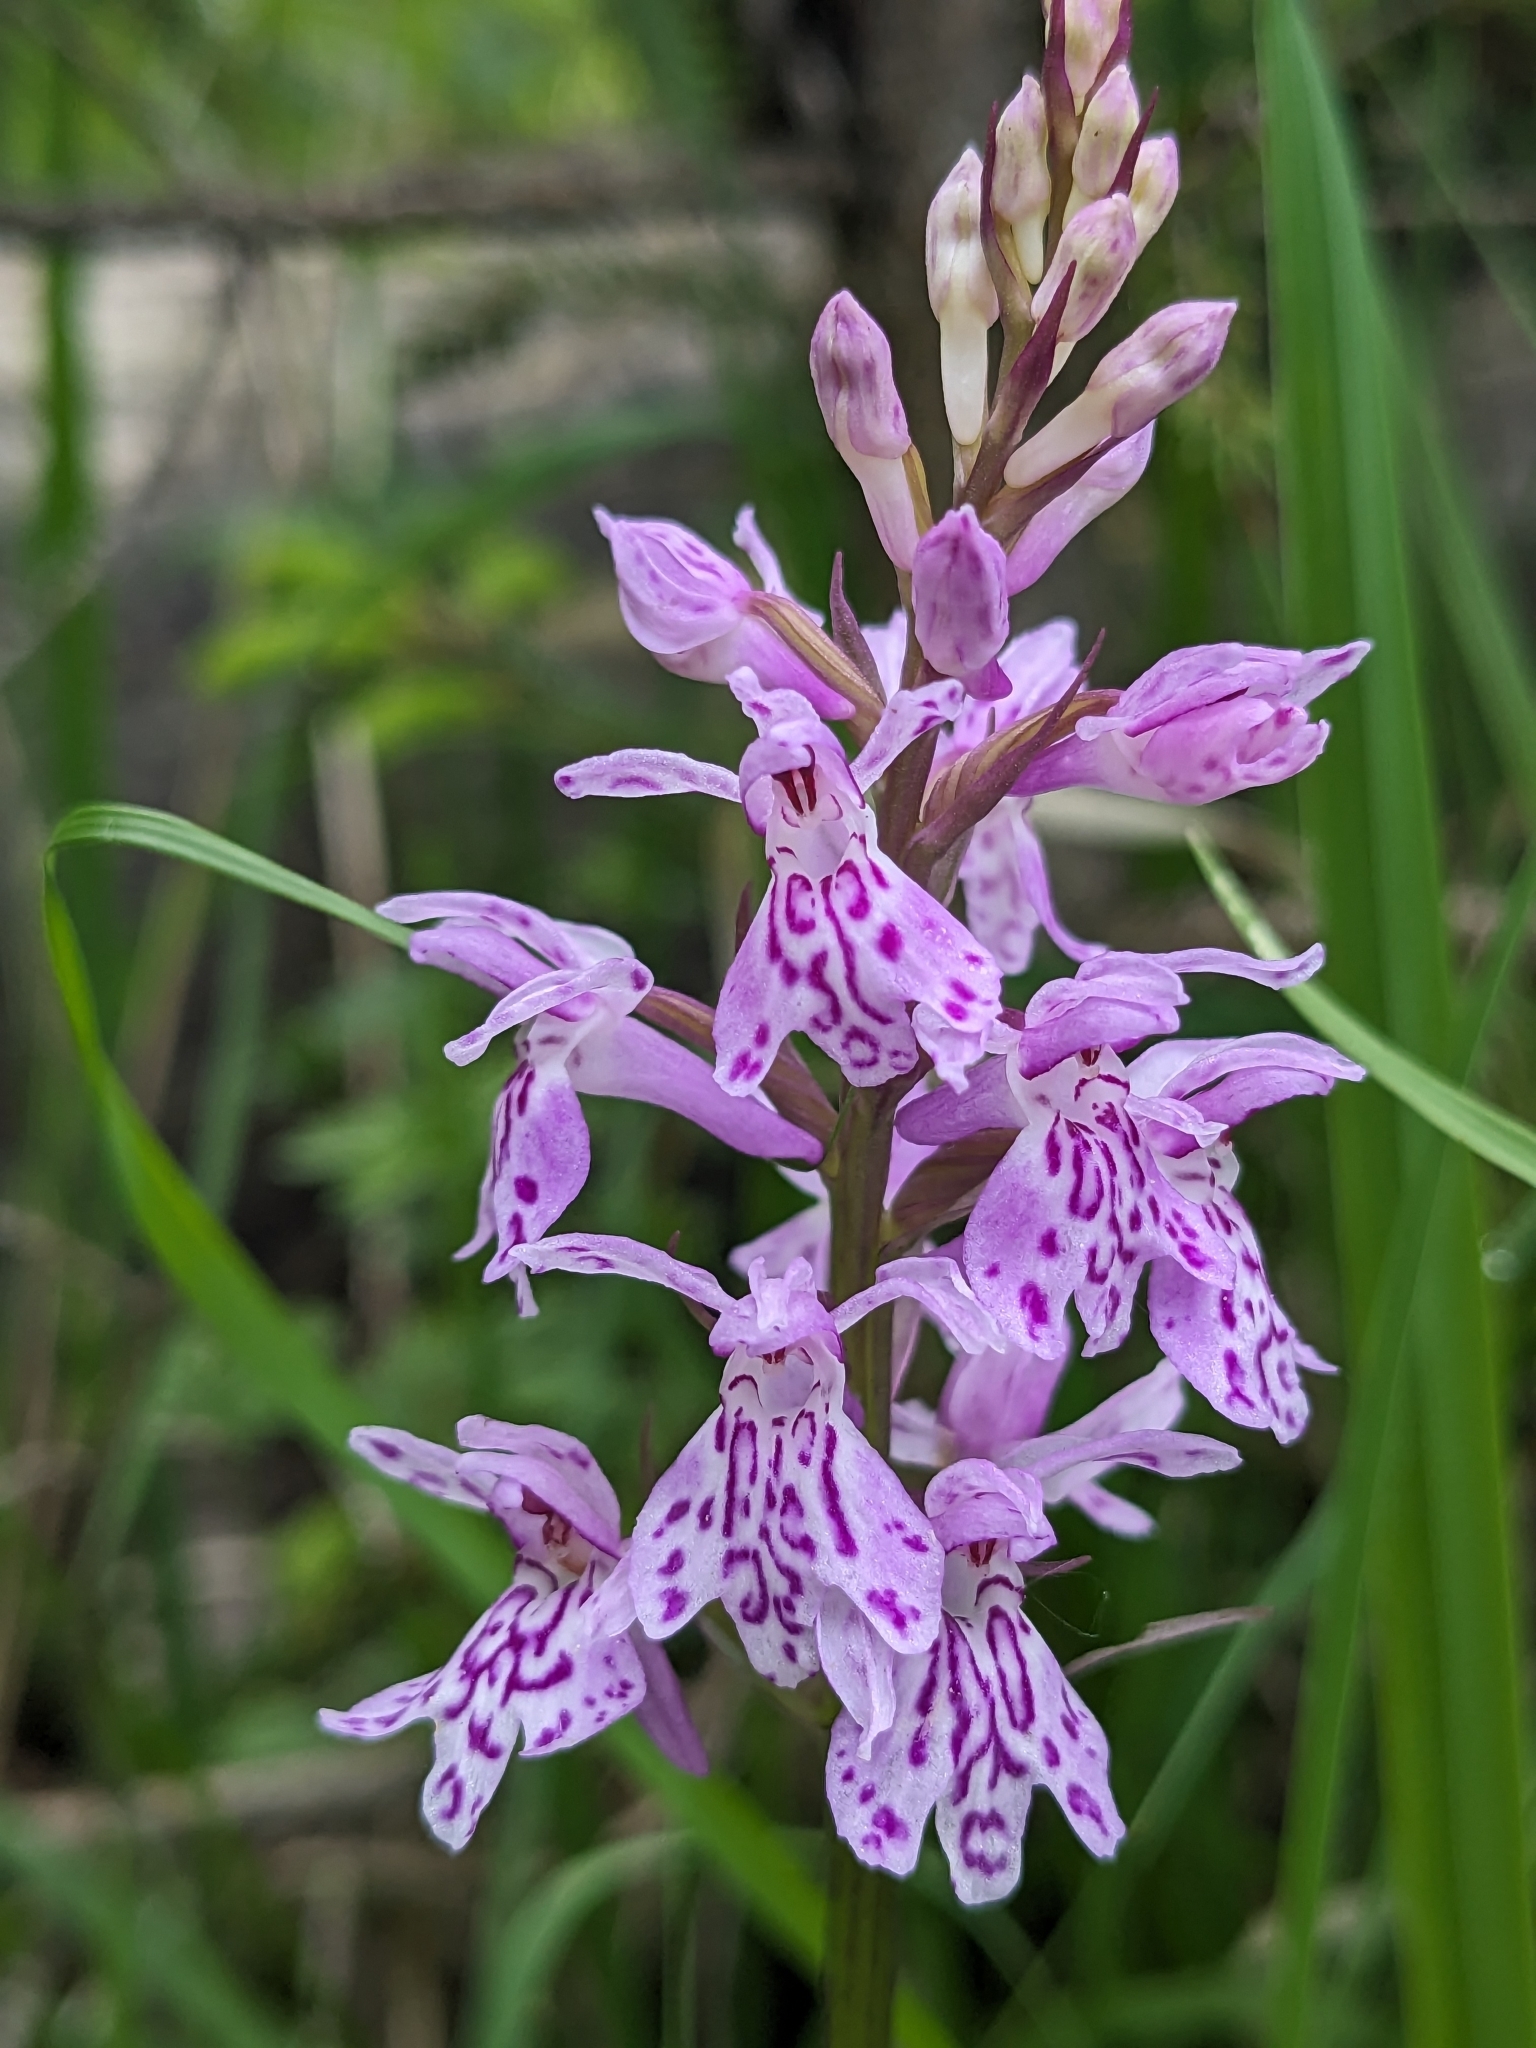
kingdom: Plantae
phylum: Tracheophyta
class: Liliopsida
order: Asparagales
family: Orchidaceae
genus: Dactylorhiza
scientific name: Dactylorhiza maculata
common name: Heath spotted-orchid
